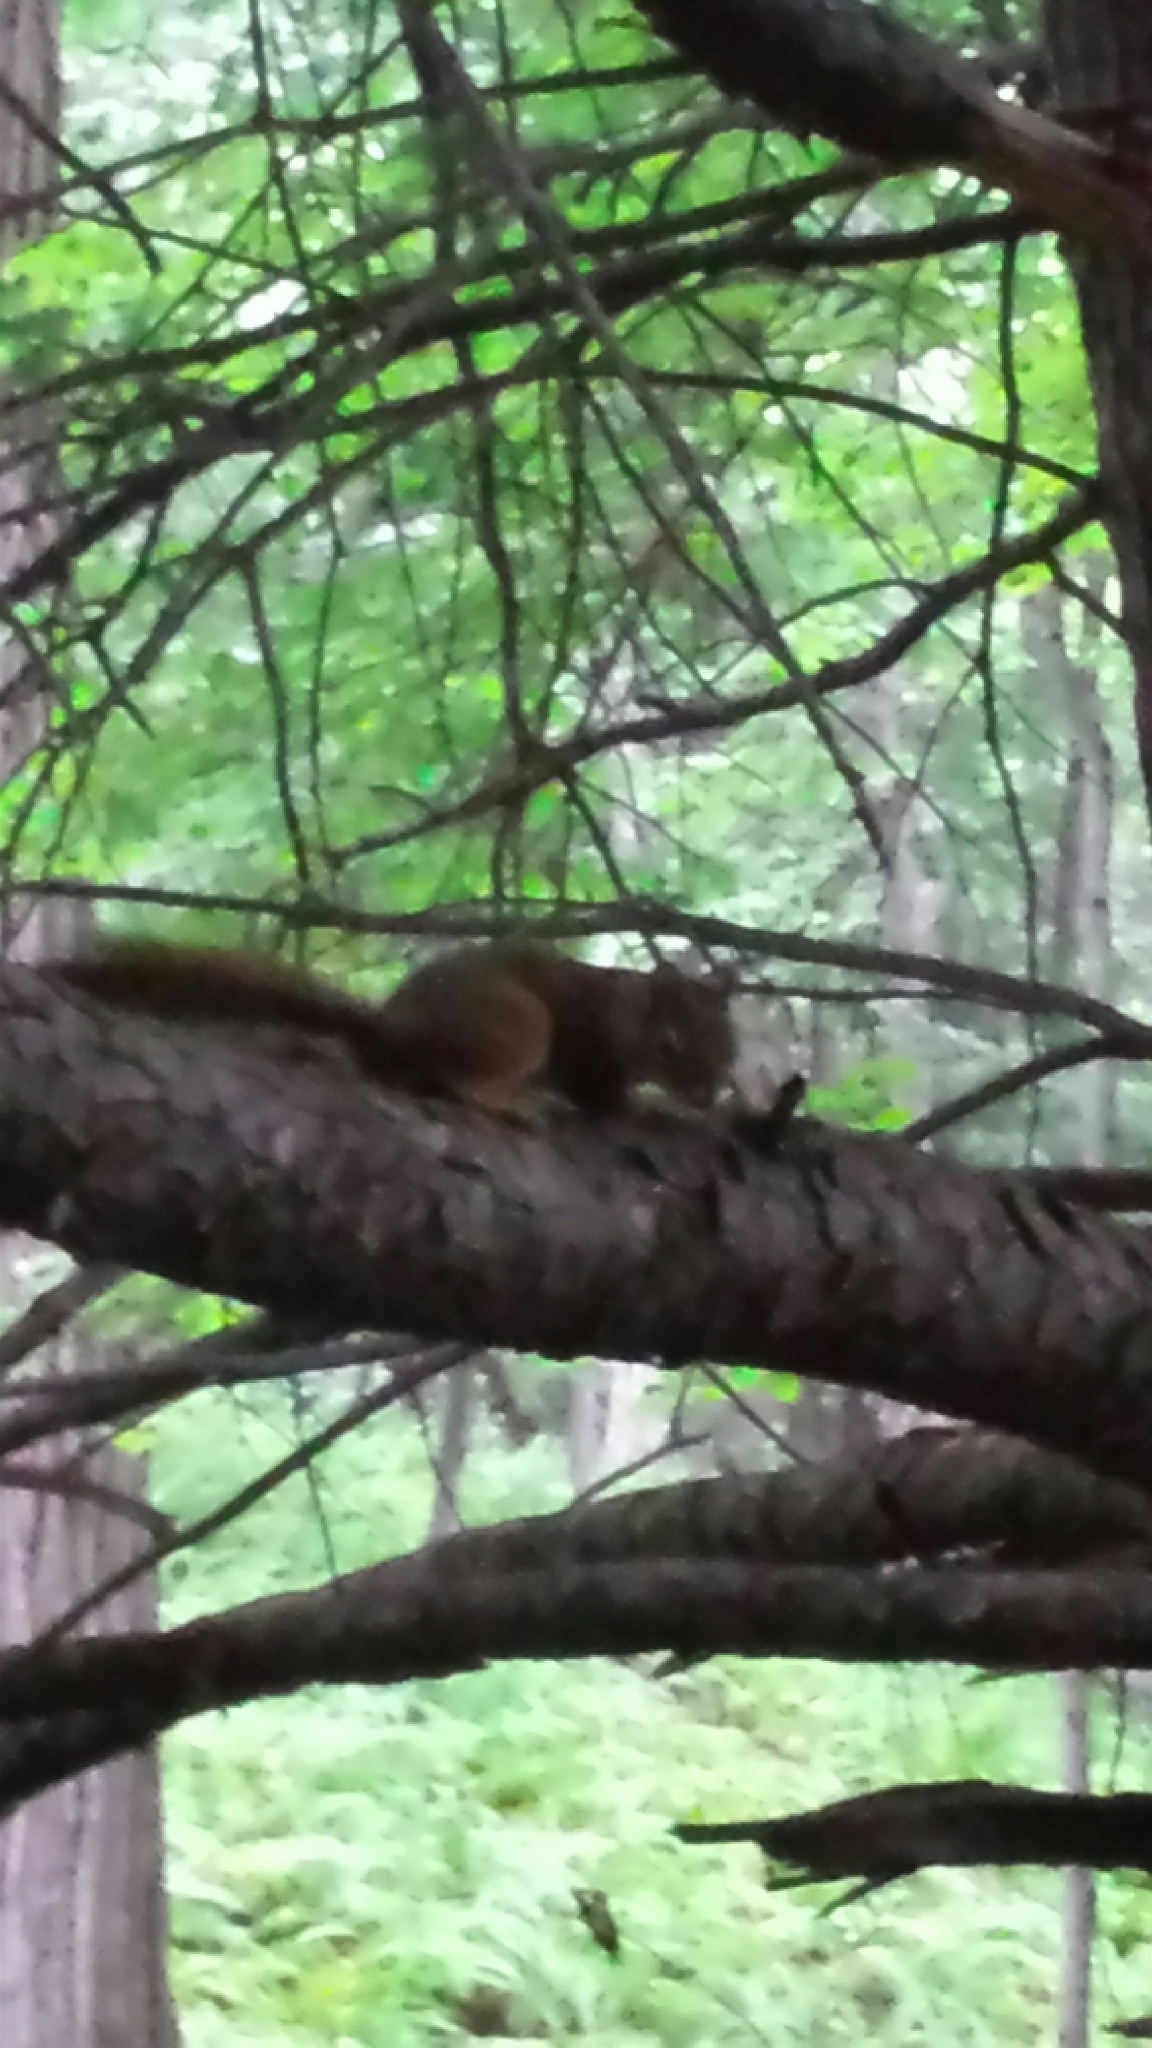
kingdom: Animalia
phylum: Chordata
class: Mammalia
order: Rodentia
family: Sciuridae
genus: Tamiasciurus
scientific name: Tamiasciurus hudsonicus
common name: Red squirrel
